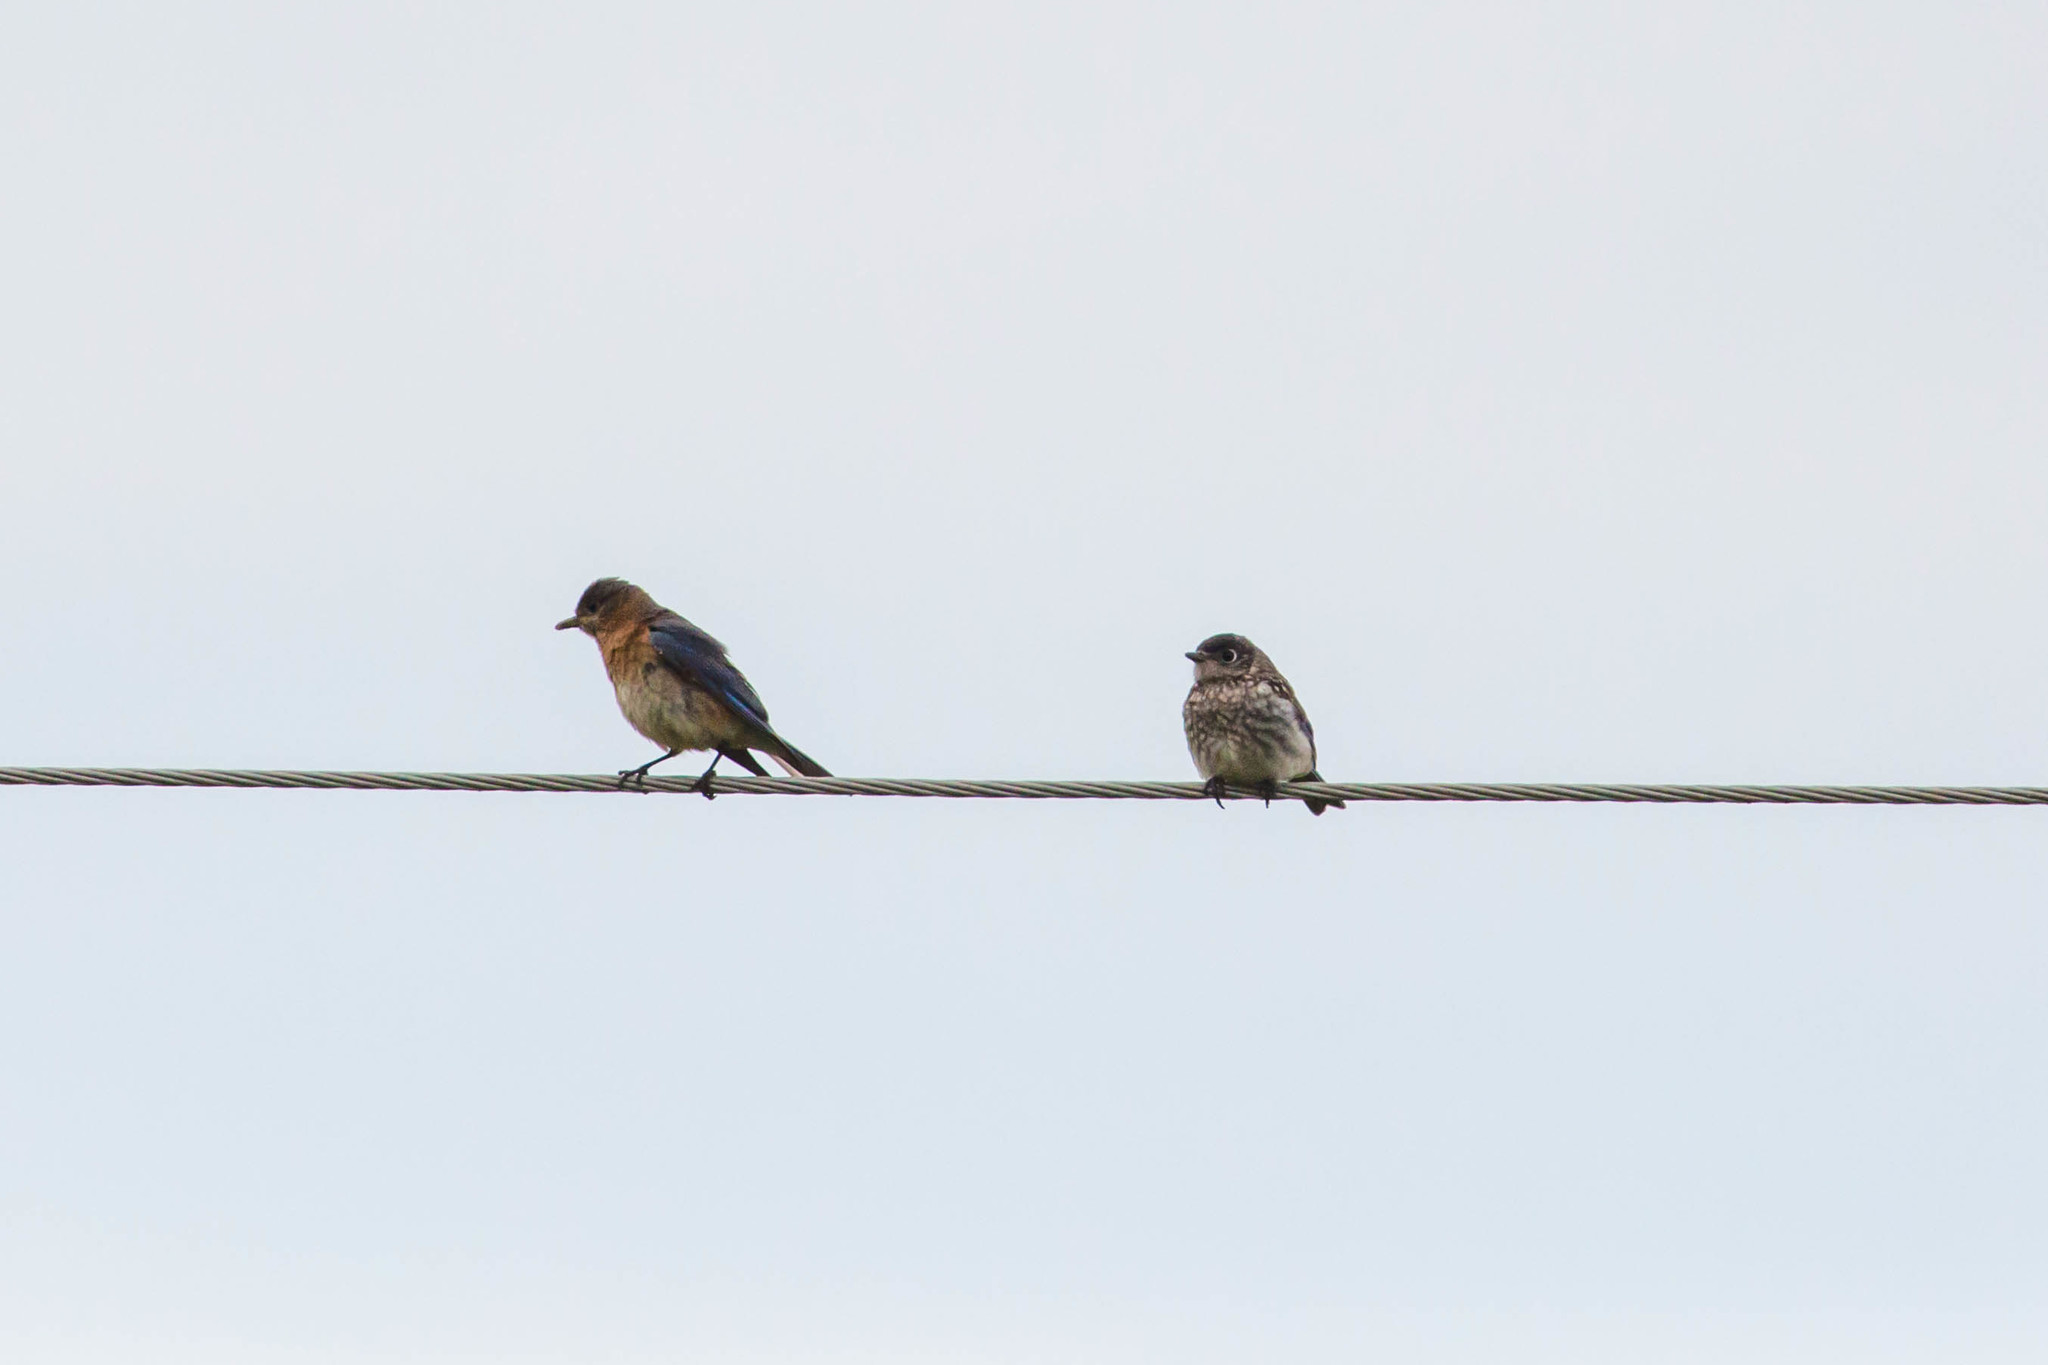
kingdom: Animalia
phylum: Chordata
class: Aves
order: Passeriformes
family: Turdidae
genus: Sialia
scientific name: Sialia sialis
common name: Eastern bluebird
